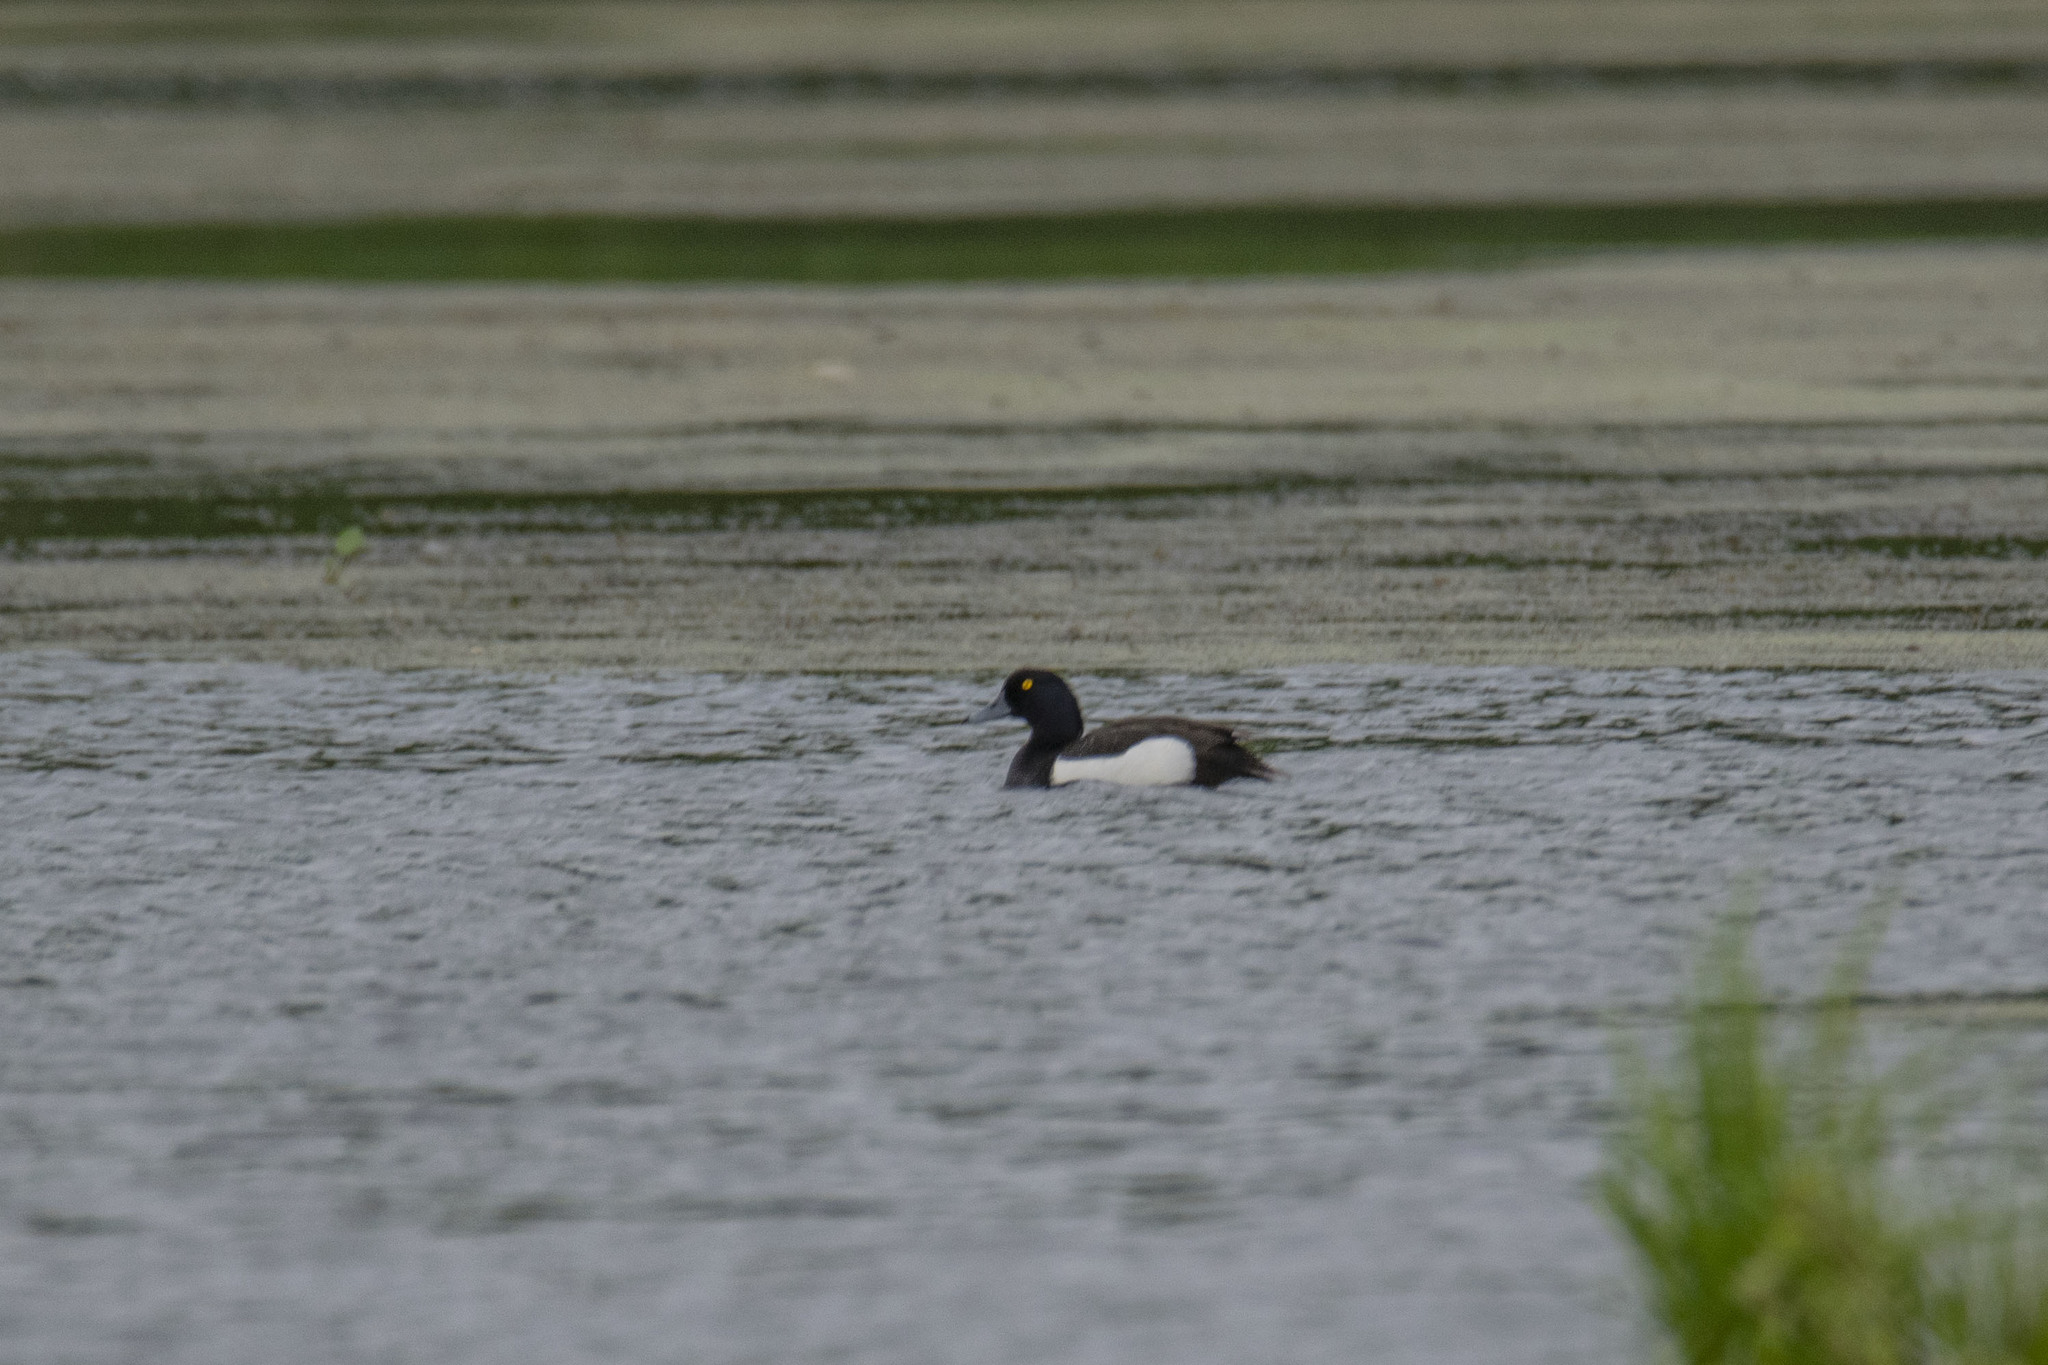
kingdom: Animalia
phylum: Chordata
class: Aves
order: Anseriformes
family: Anatidae
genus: Aythya
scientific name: Aythya fuligula
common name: Tufted duck
